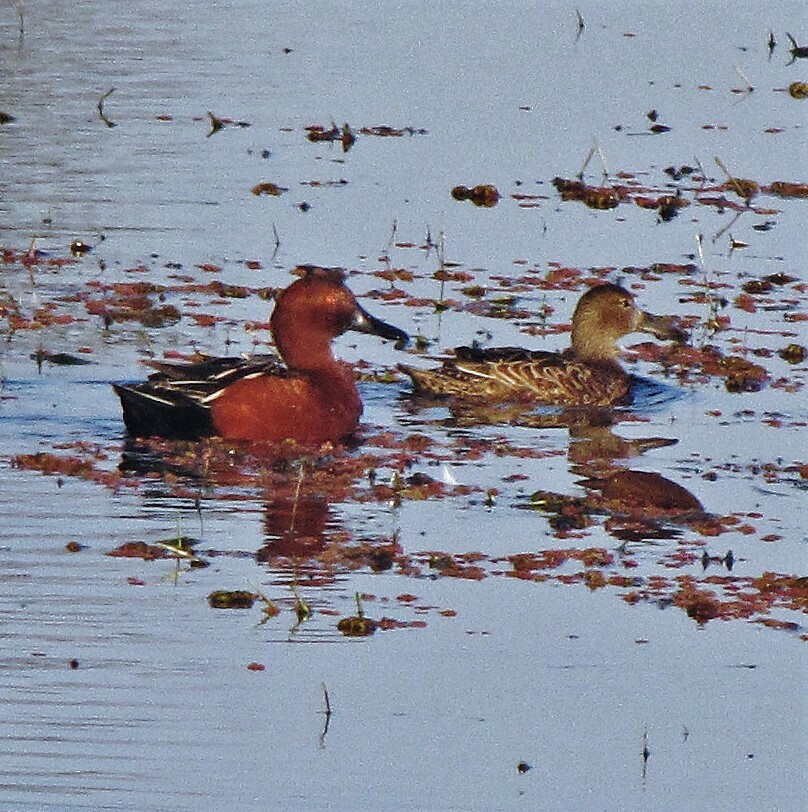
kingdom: Animalia
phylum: Chordata
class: Aves
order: Anseriformes
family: Anatidae
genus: Spatula
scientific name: Spatula cyanoptera
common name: Cinnamon teal
